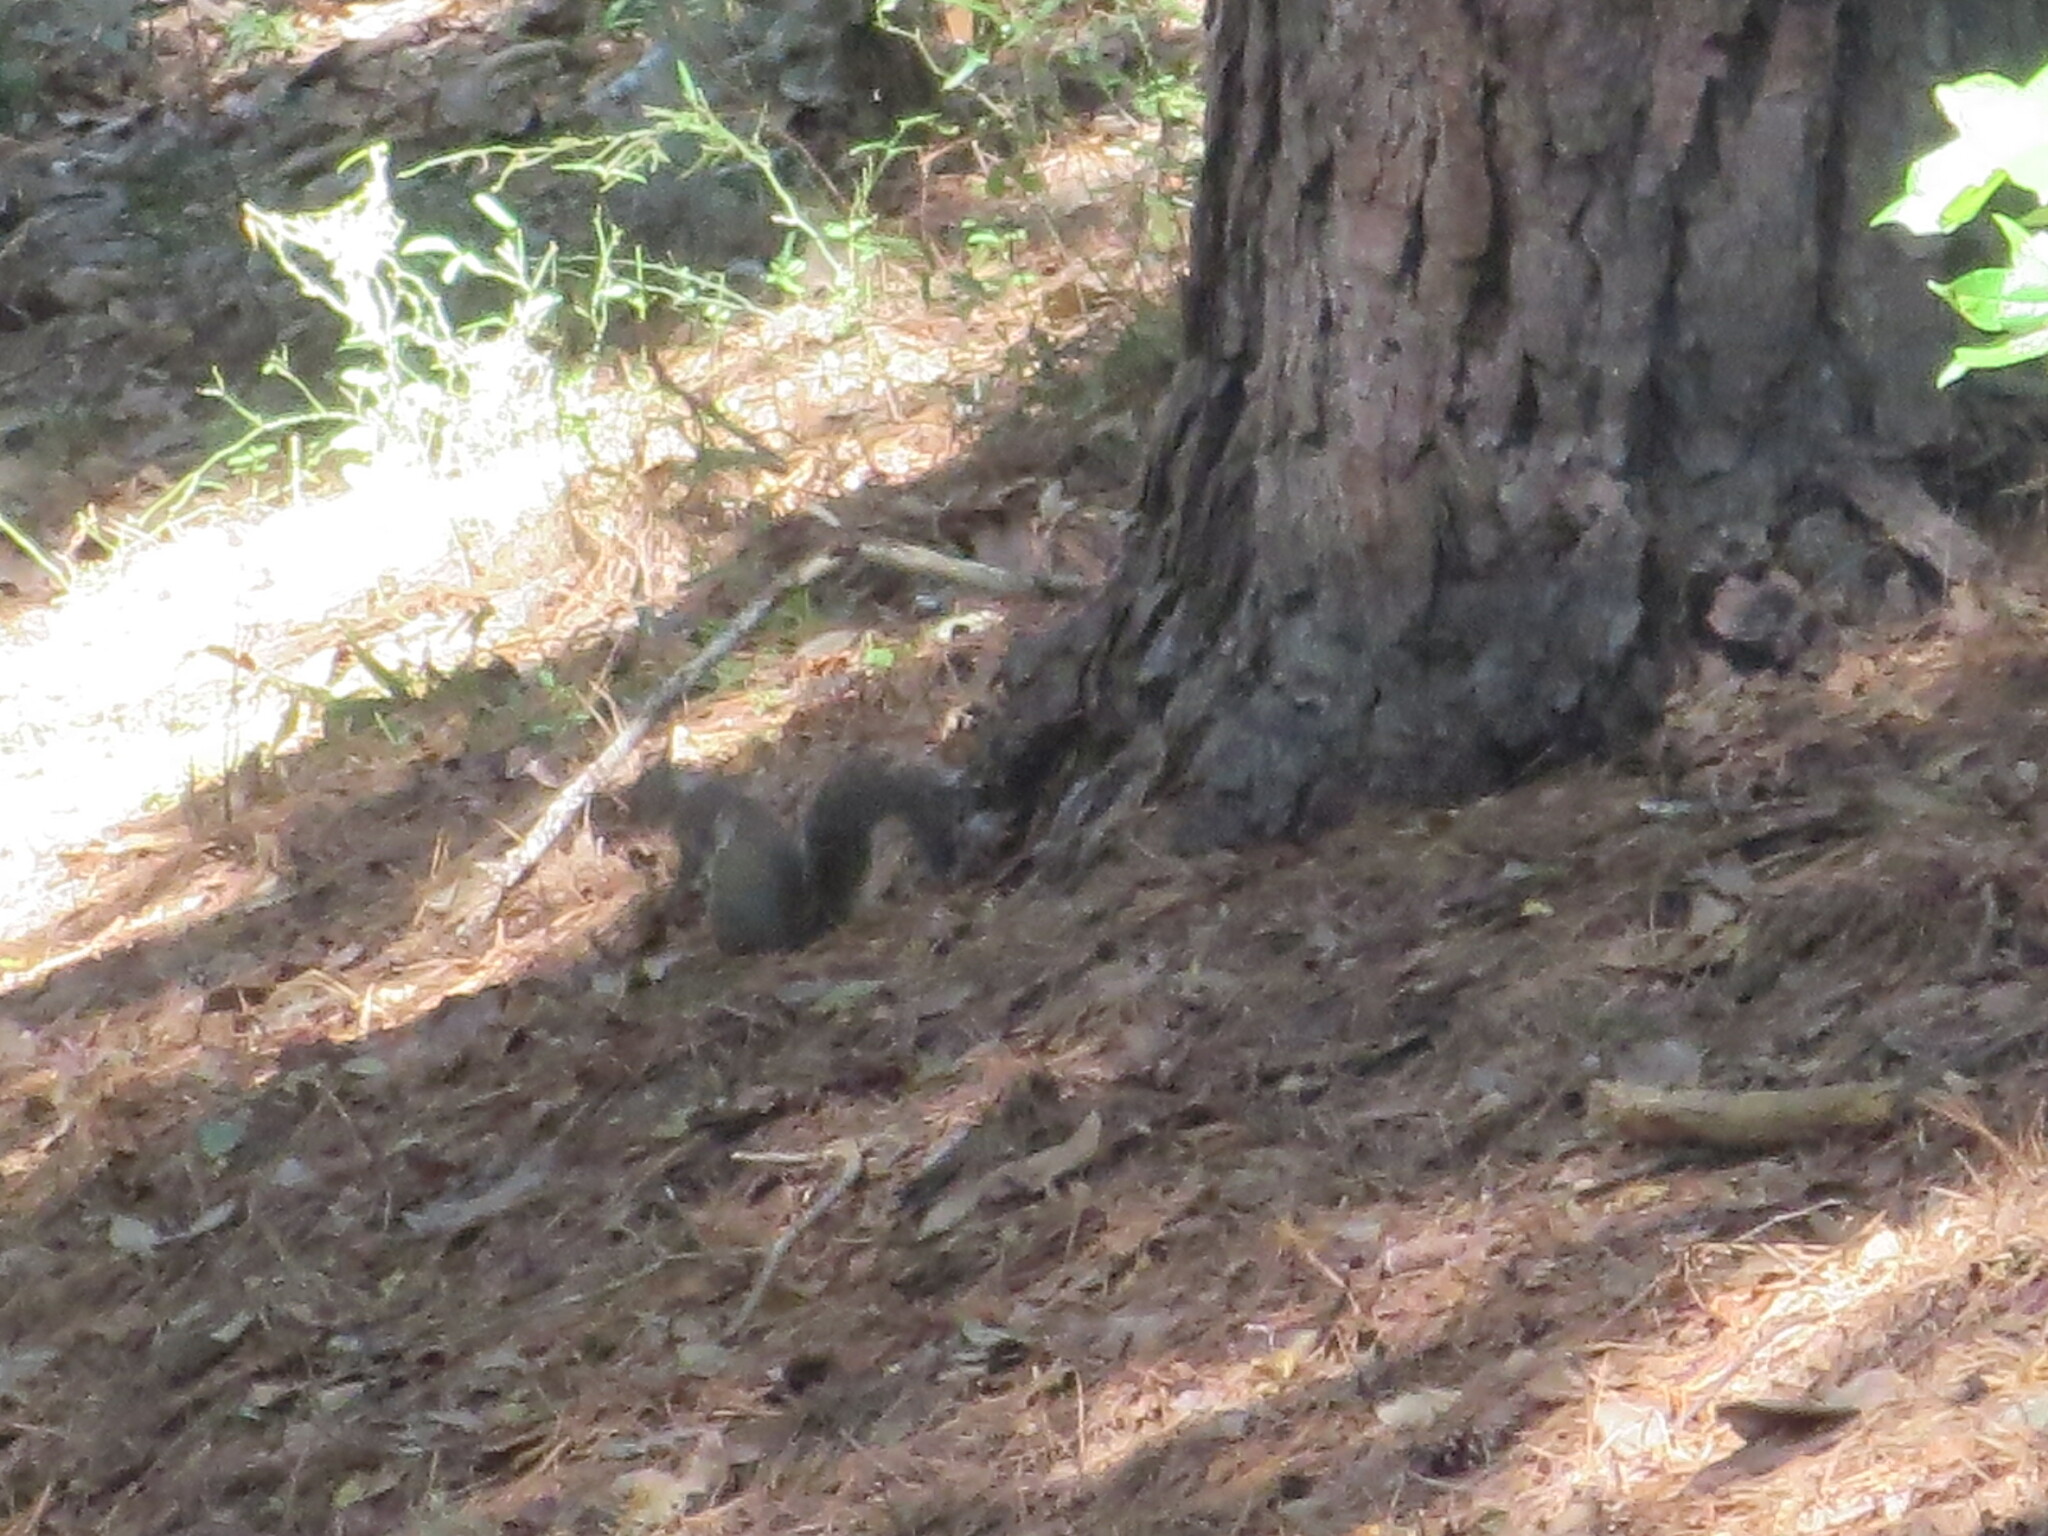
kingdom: Animalia
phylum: Chordata
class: Mammalia
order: Rodentia
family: Sciuridae
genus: Sciurus
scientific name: Sciurus carolinensis
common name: Eastern gray squirrel
